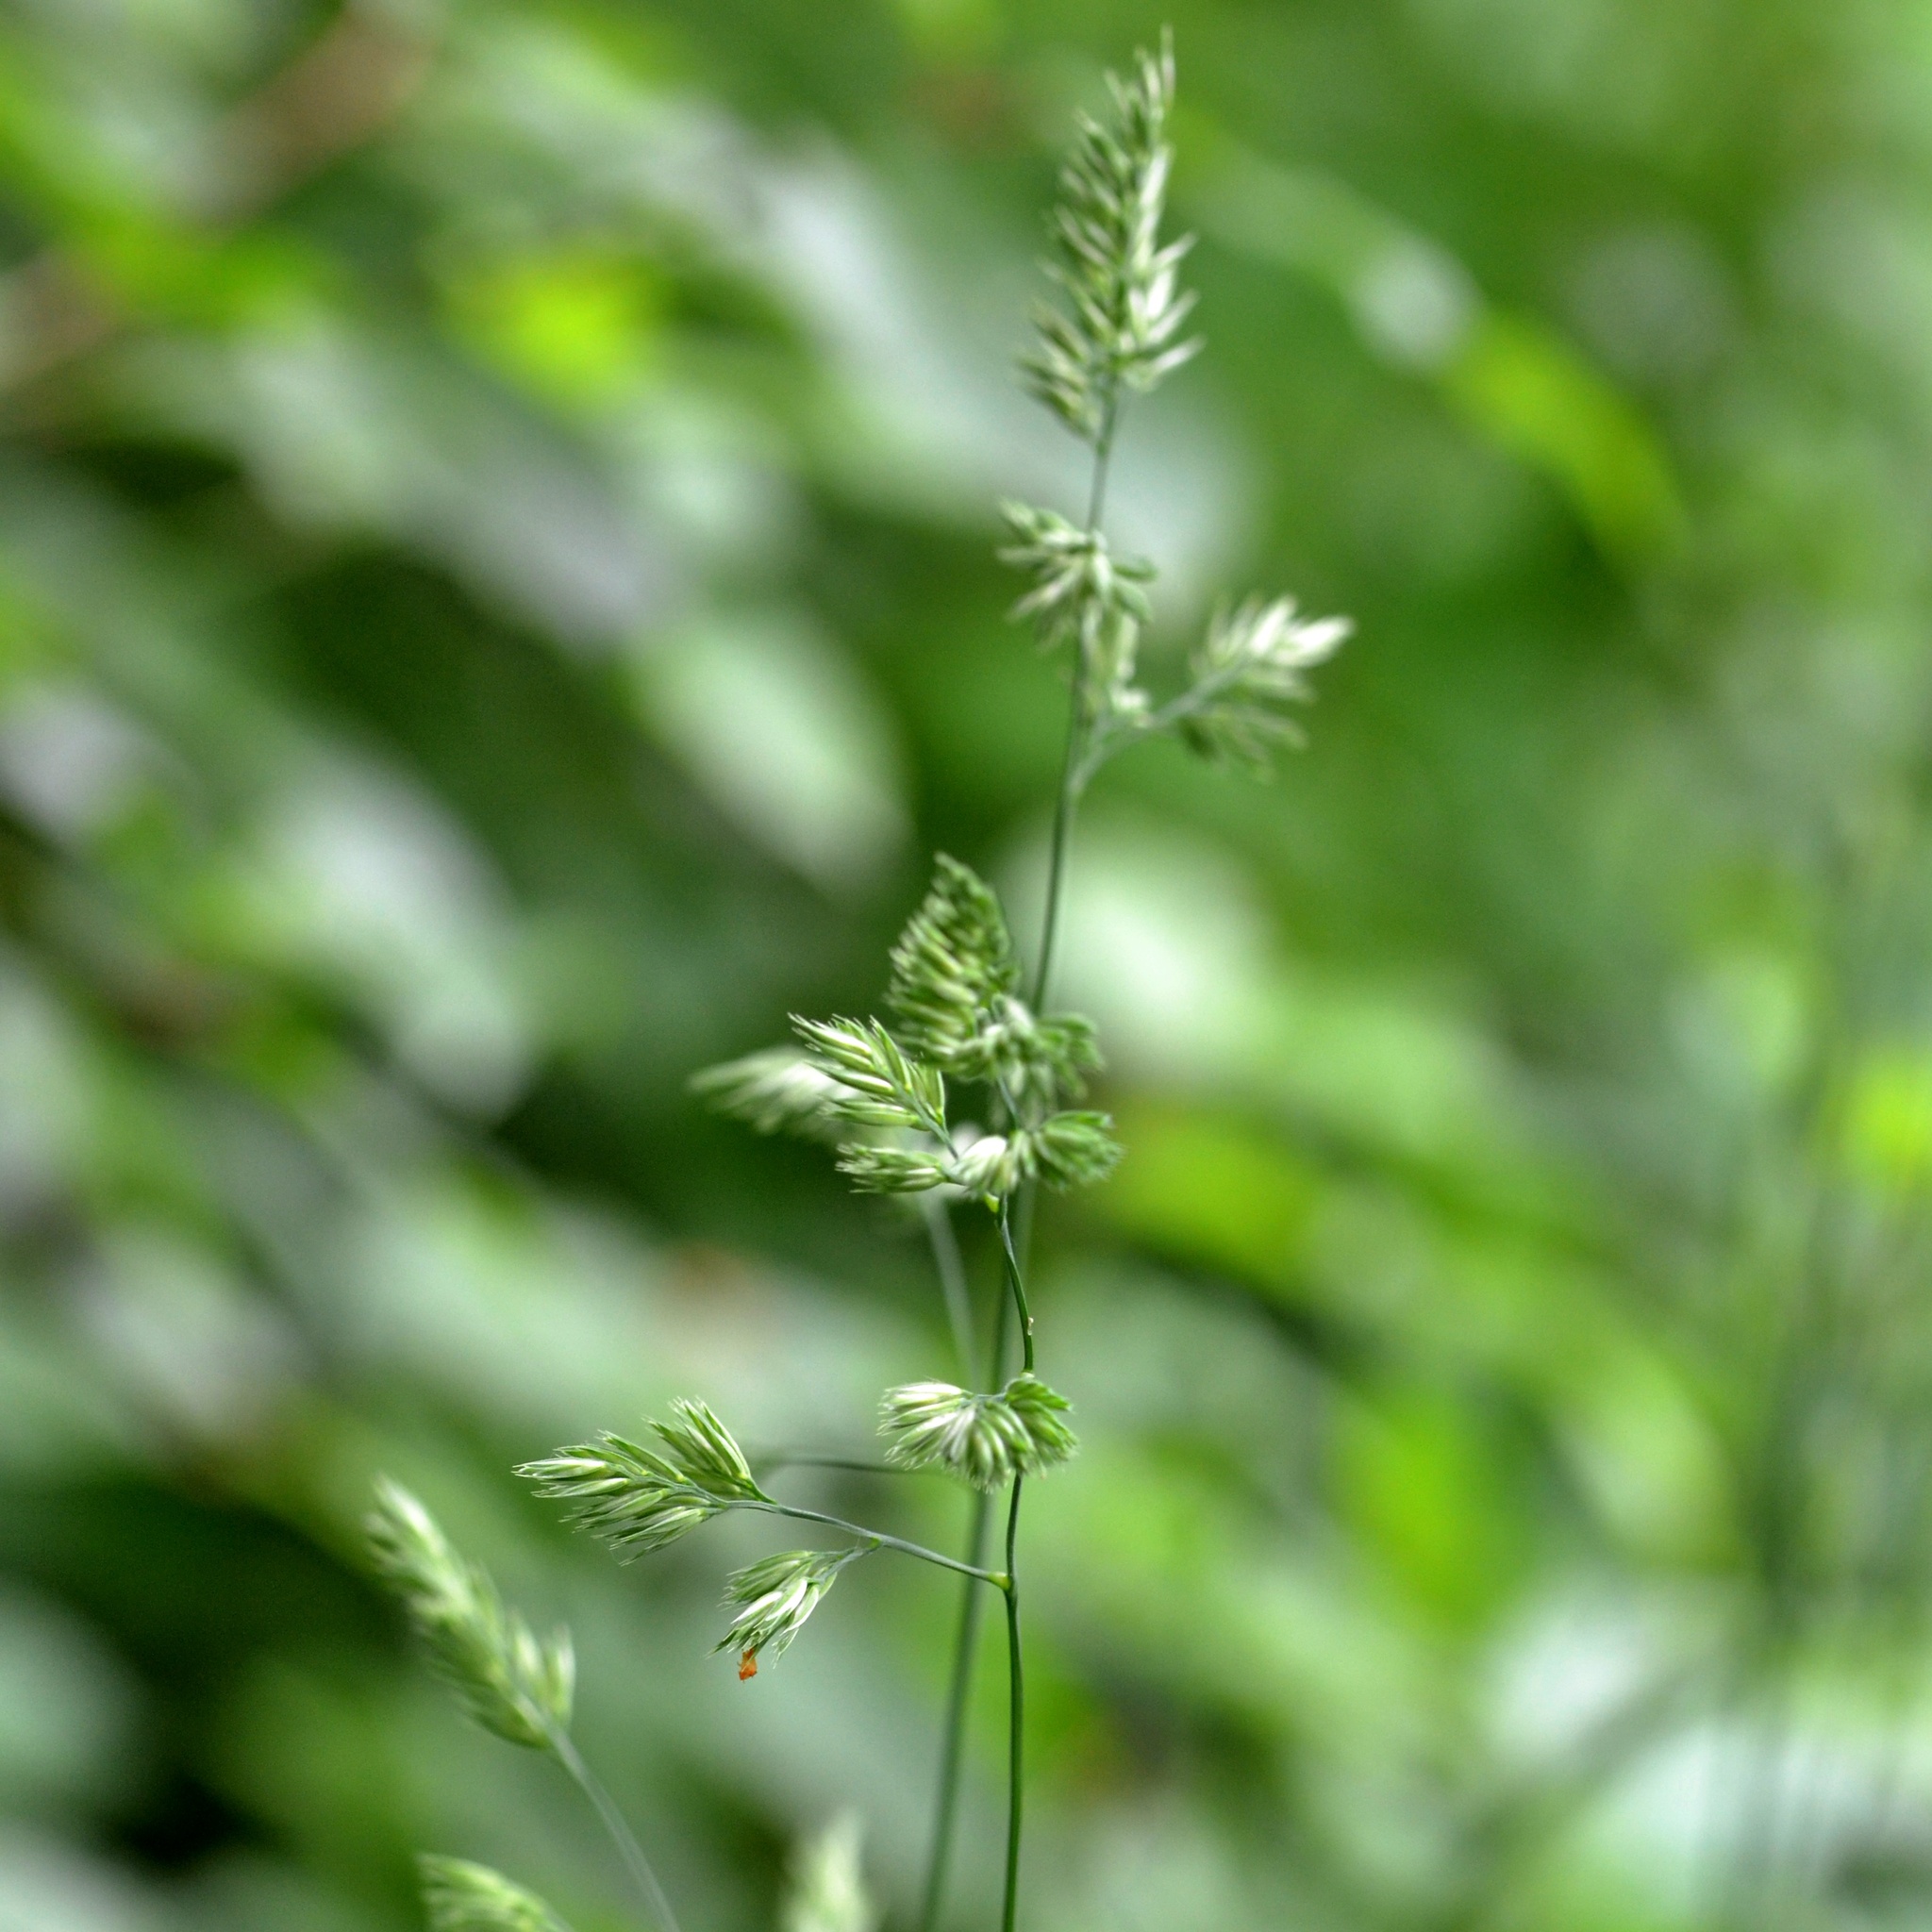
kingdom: Plantae
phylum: Tracheophyta
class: Liliopsida
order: Poales
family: Poaceae
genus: Dactylis
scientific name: Dactylis glomerata
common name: Orchardgrass
